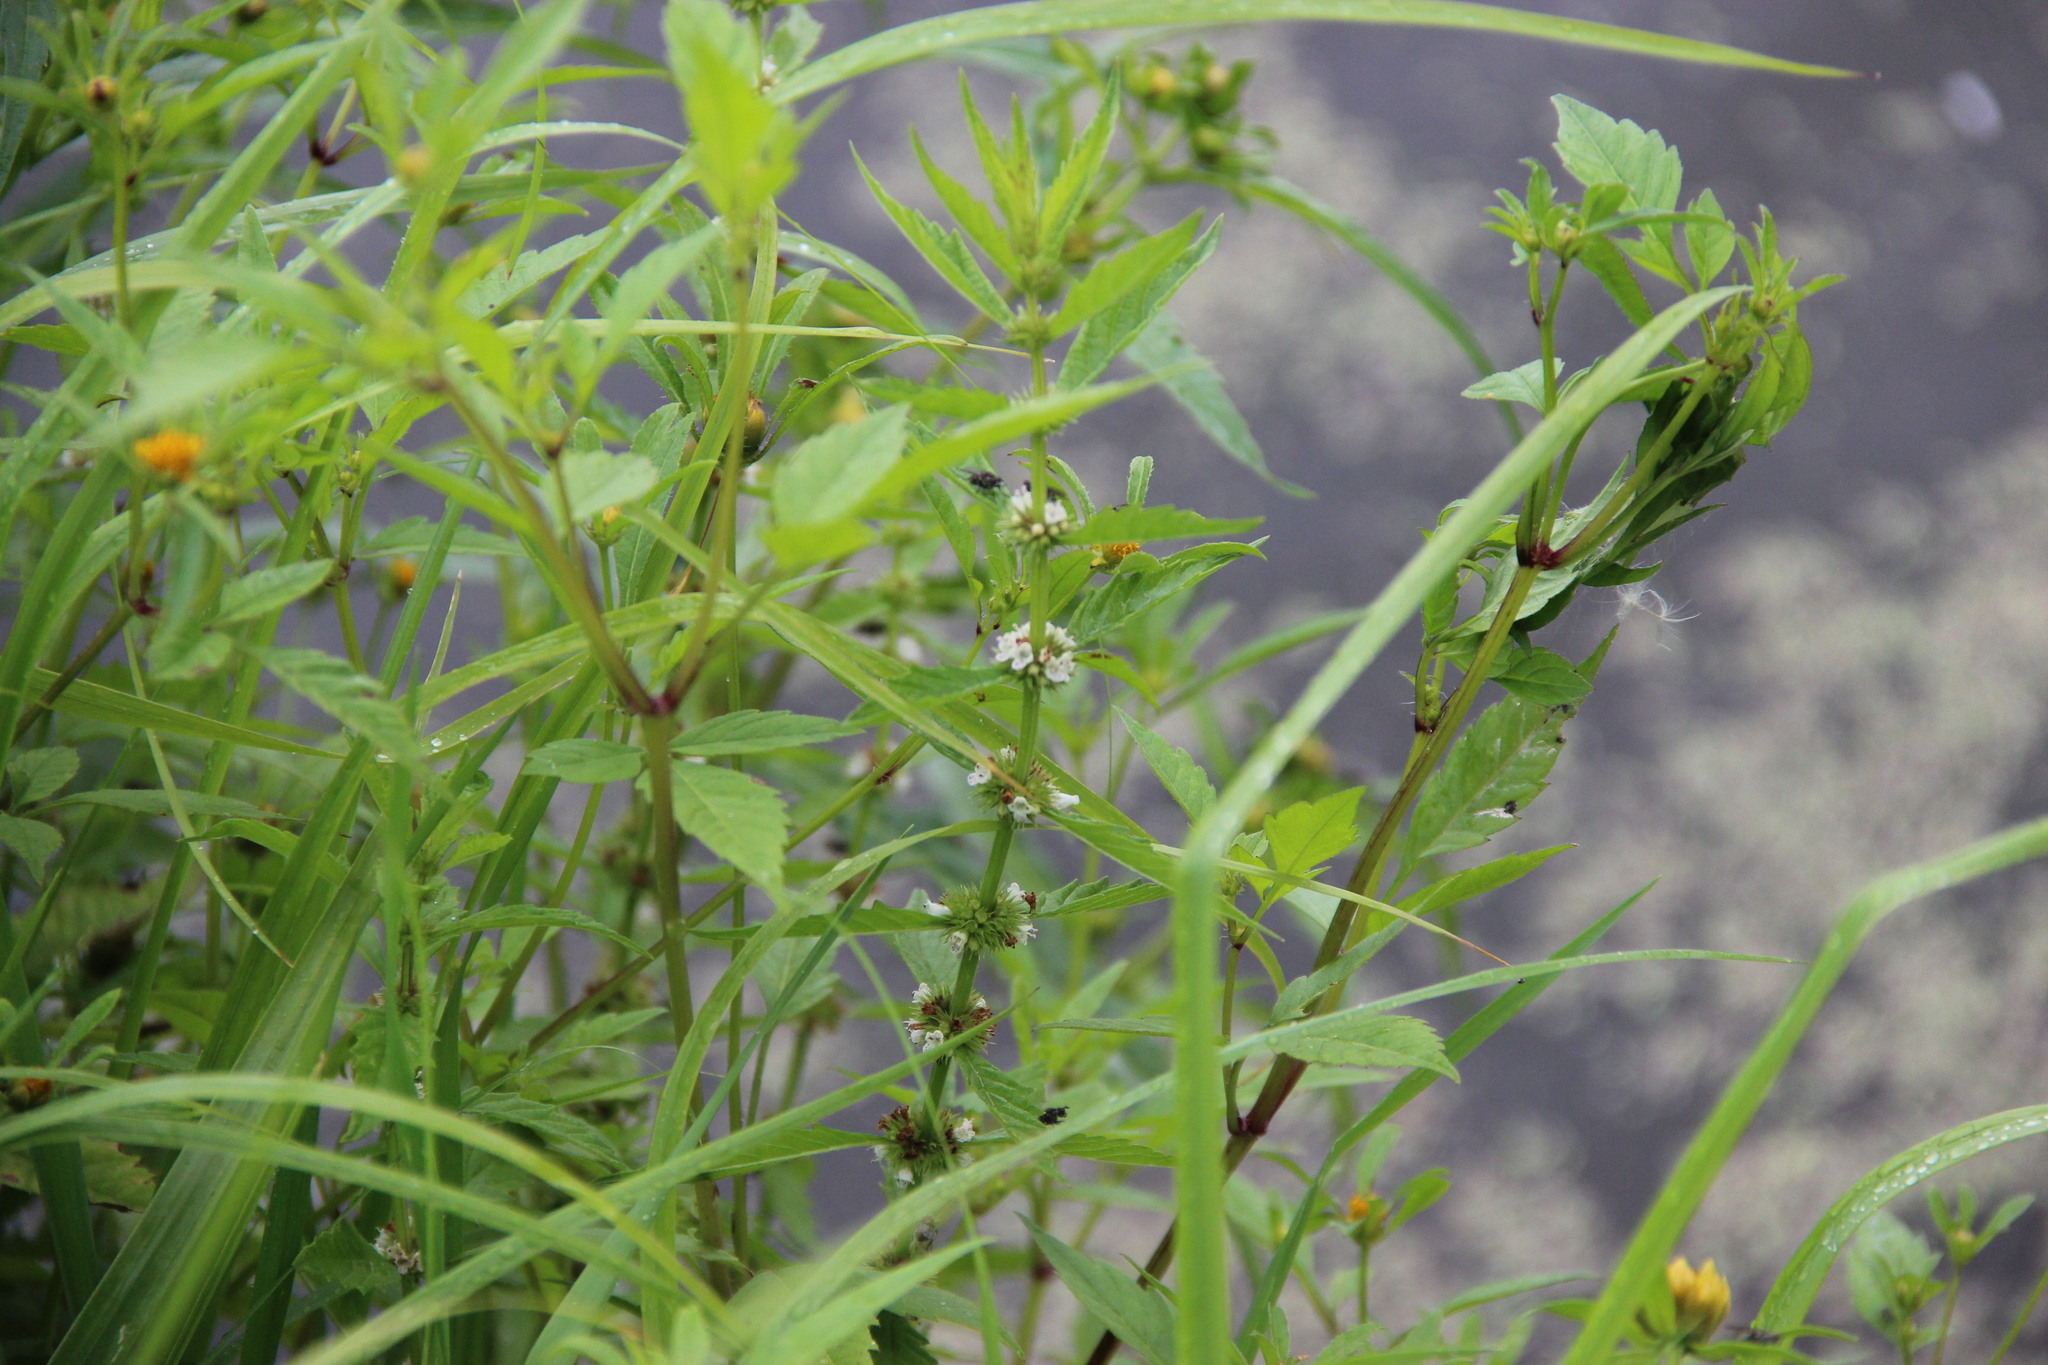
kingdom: Plantae
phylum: Tracheophyta
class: Magnoliopsida
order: Lamiales
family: Lamiaceae
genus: Lycopus
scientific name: Lycopus europaeus
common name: European bugleweed
